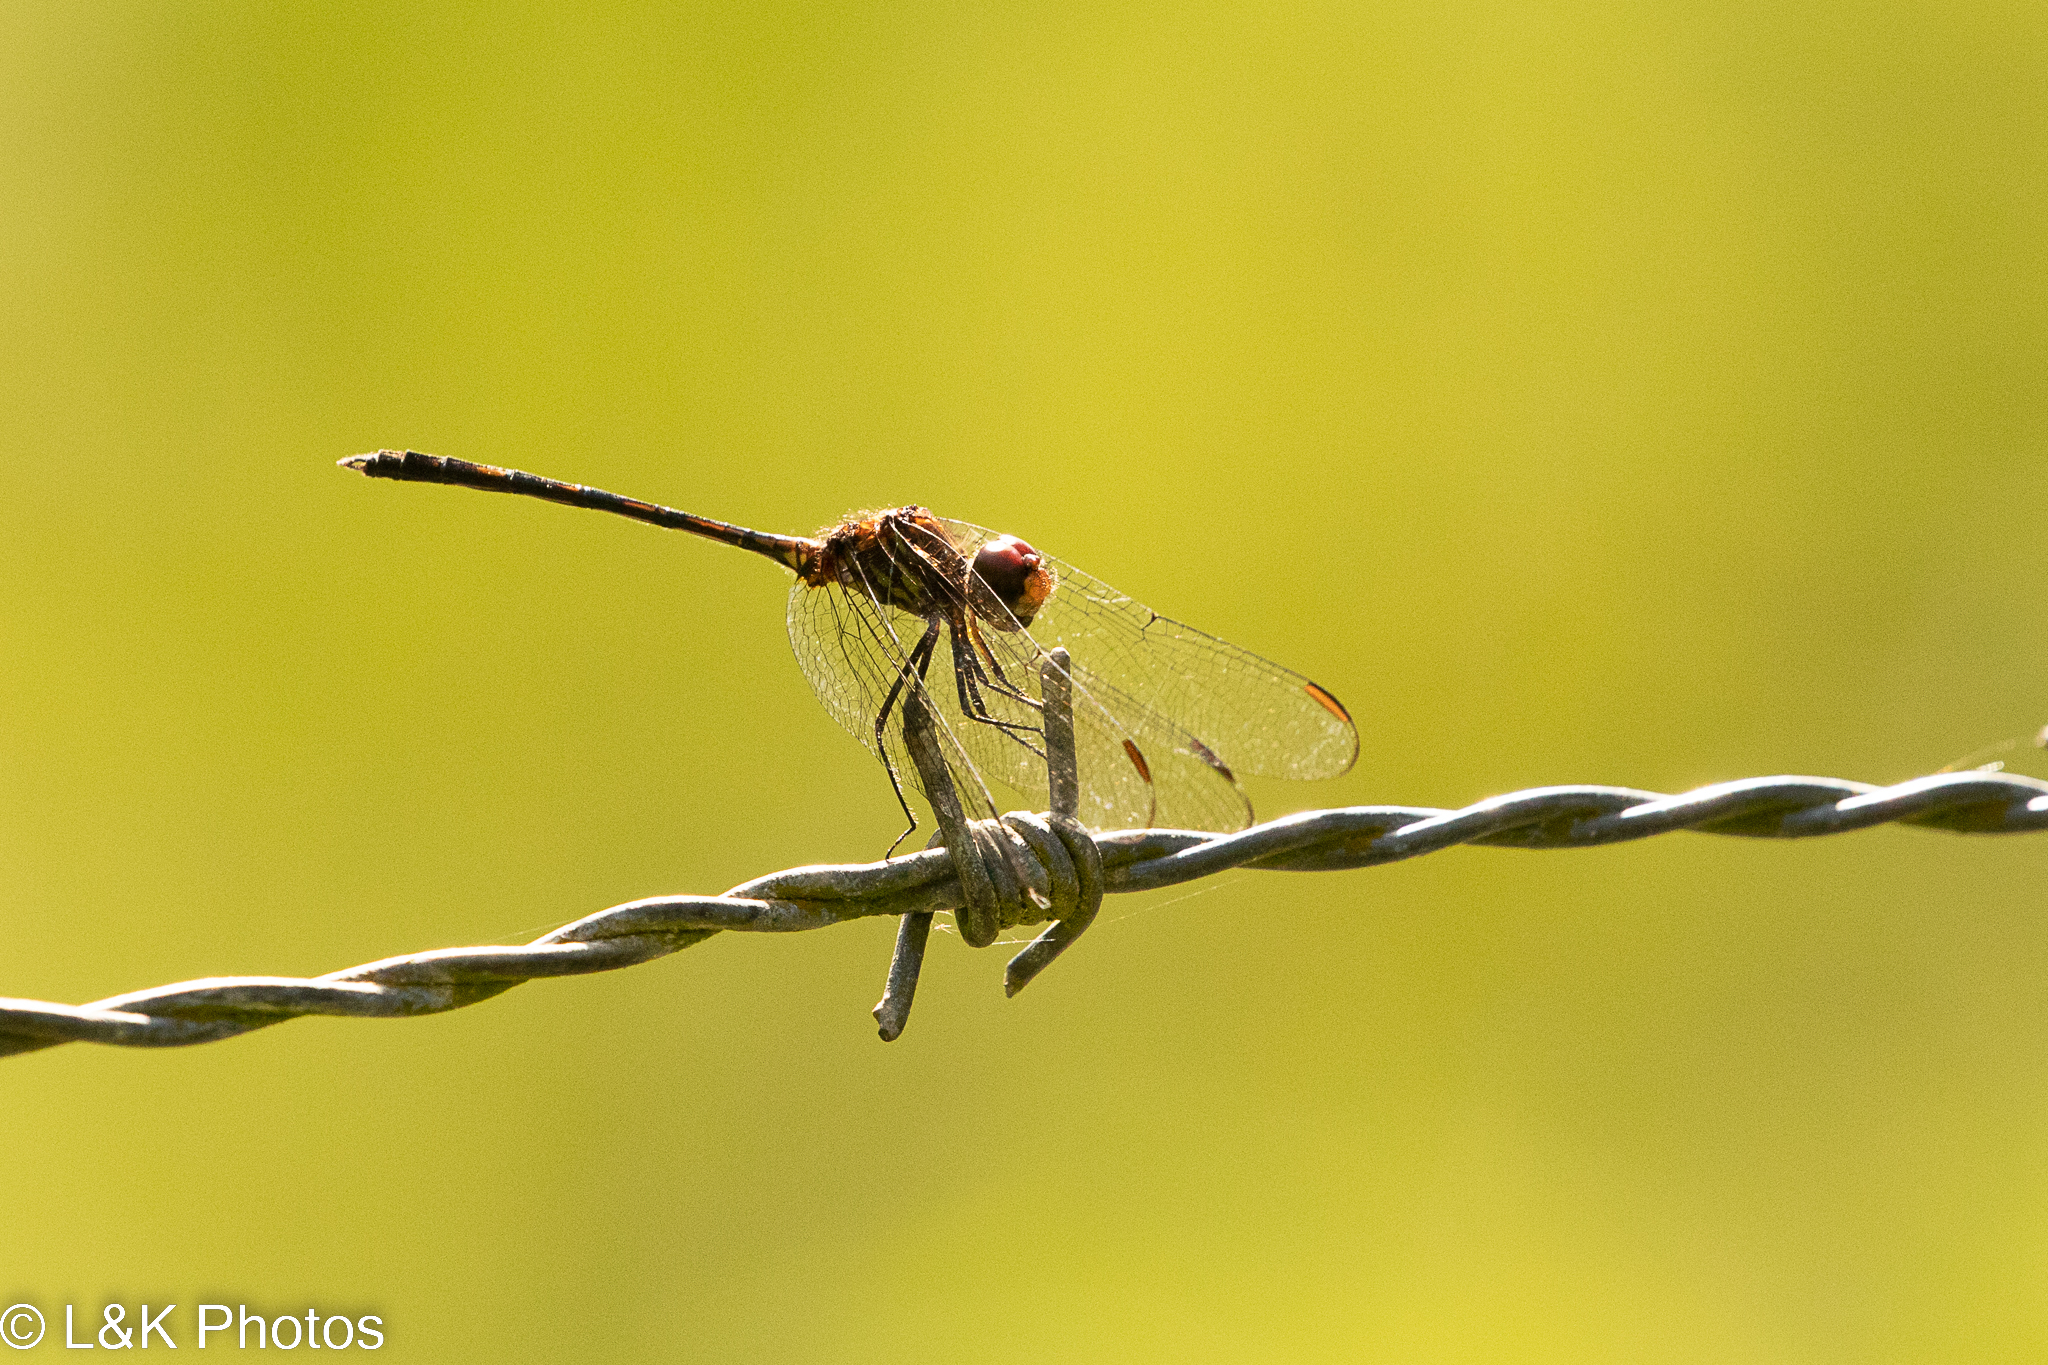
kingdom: Animalia
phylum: Arthropoda
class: Insecta
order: Odonata
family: Libellulidae
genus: Dythemis
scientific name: Dythemis sterilis
